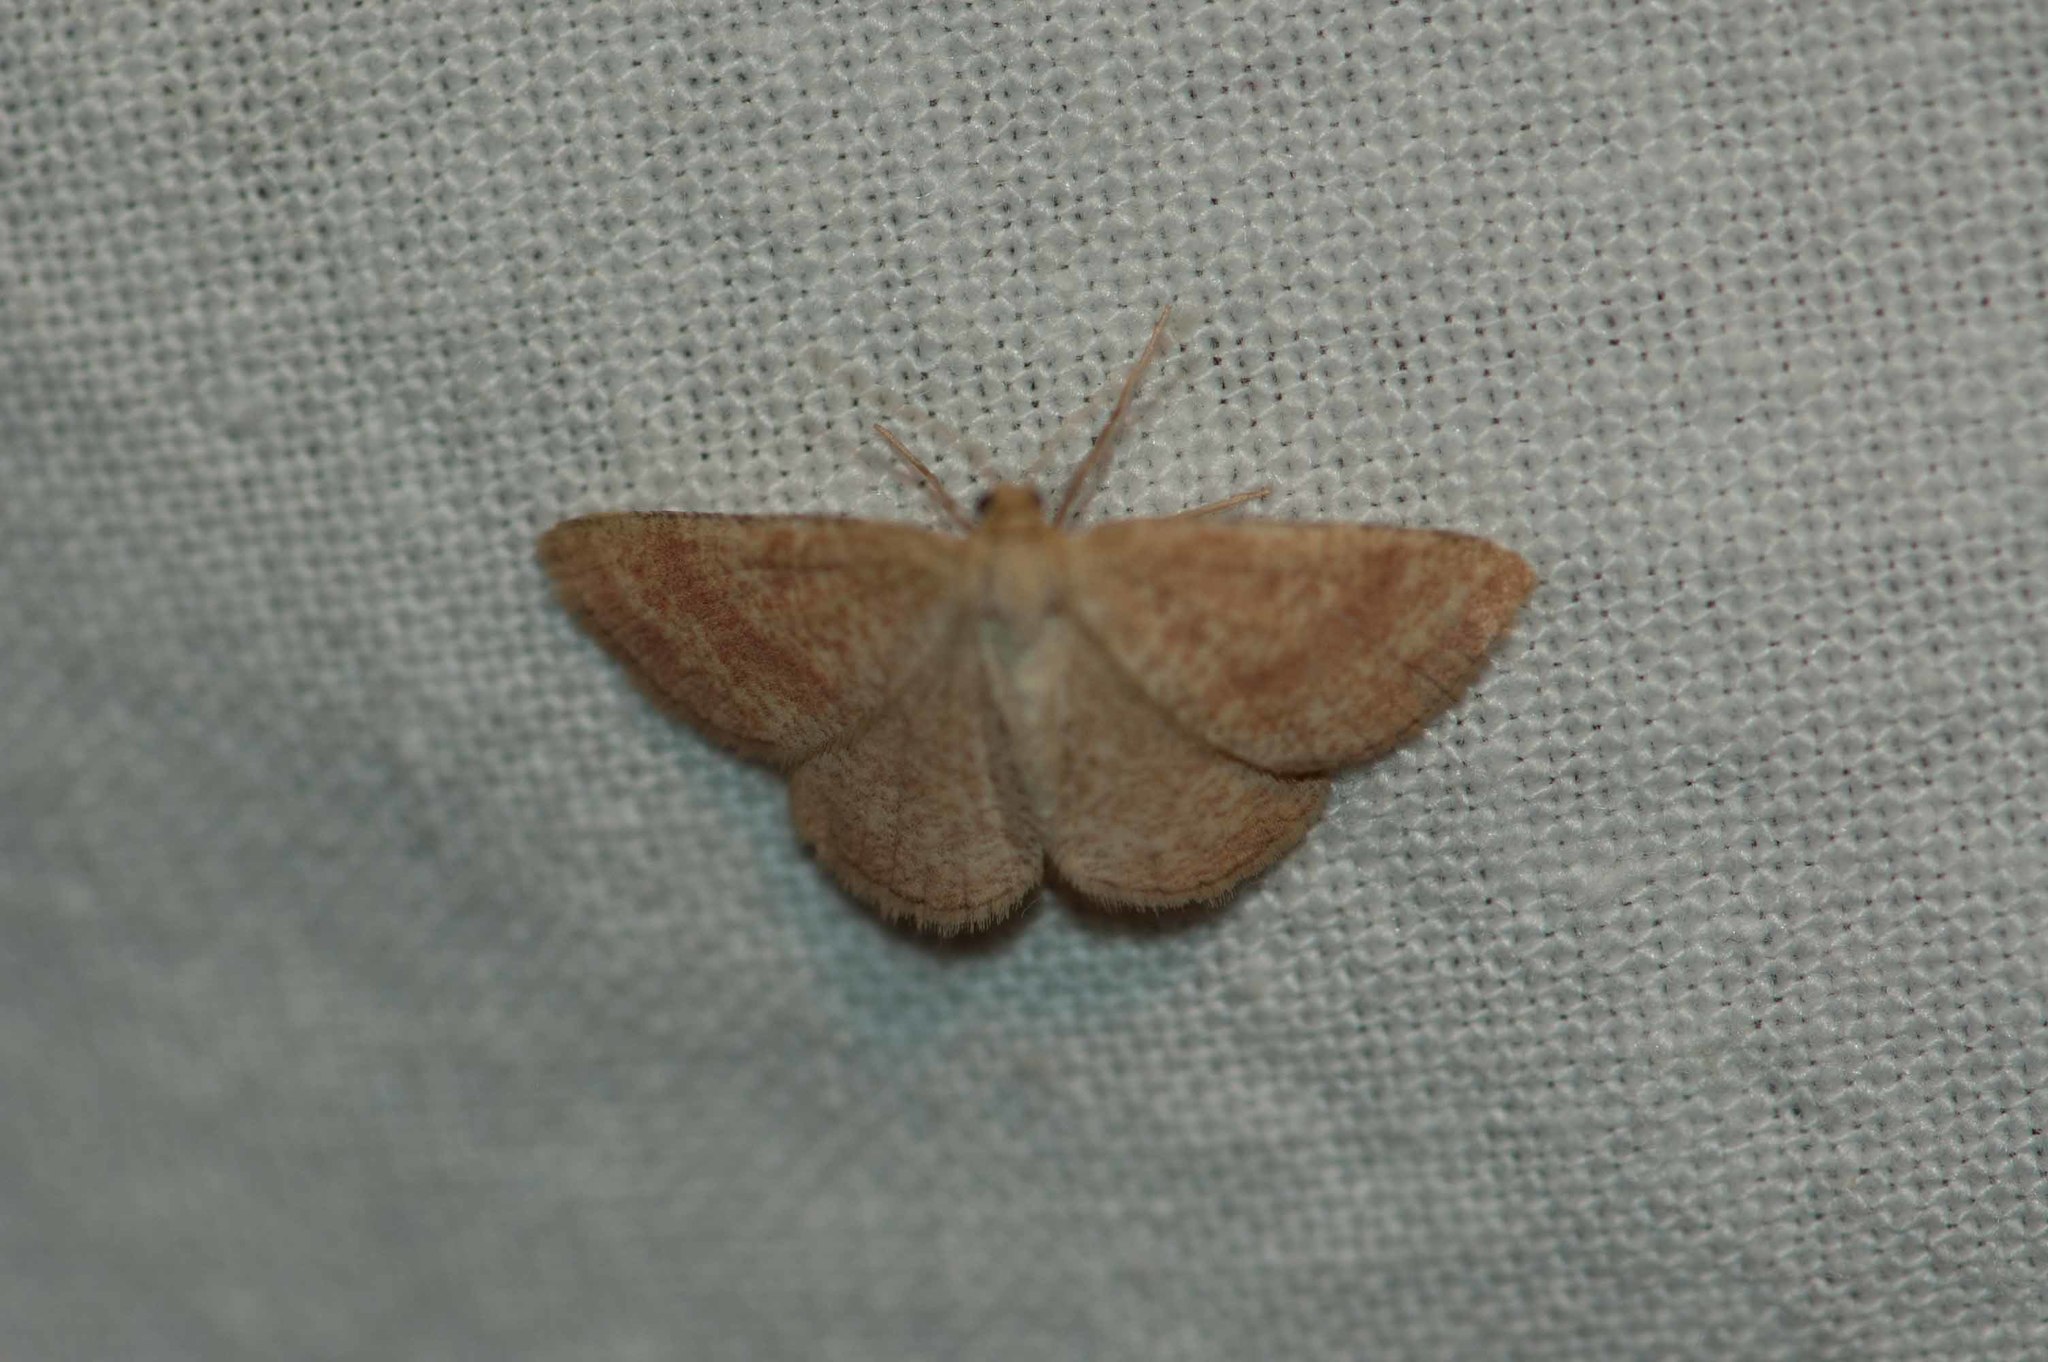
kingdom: Animalia
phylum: Arthropoda
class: Insecta
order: Lepidoptera
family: Geometridae
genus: Aplasta
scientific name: Aplasta ononaria
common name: Rest harrow
